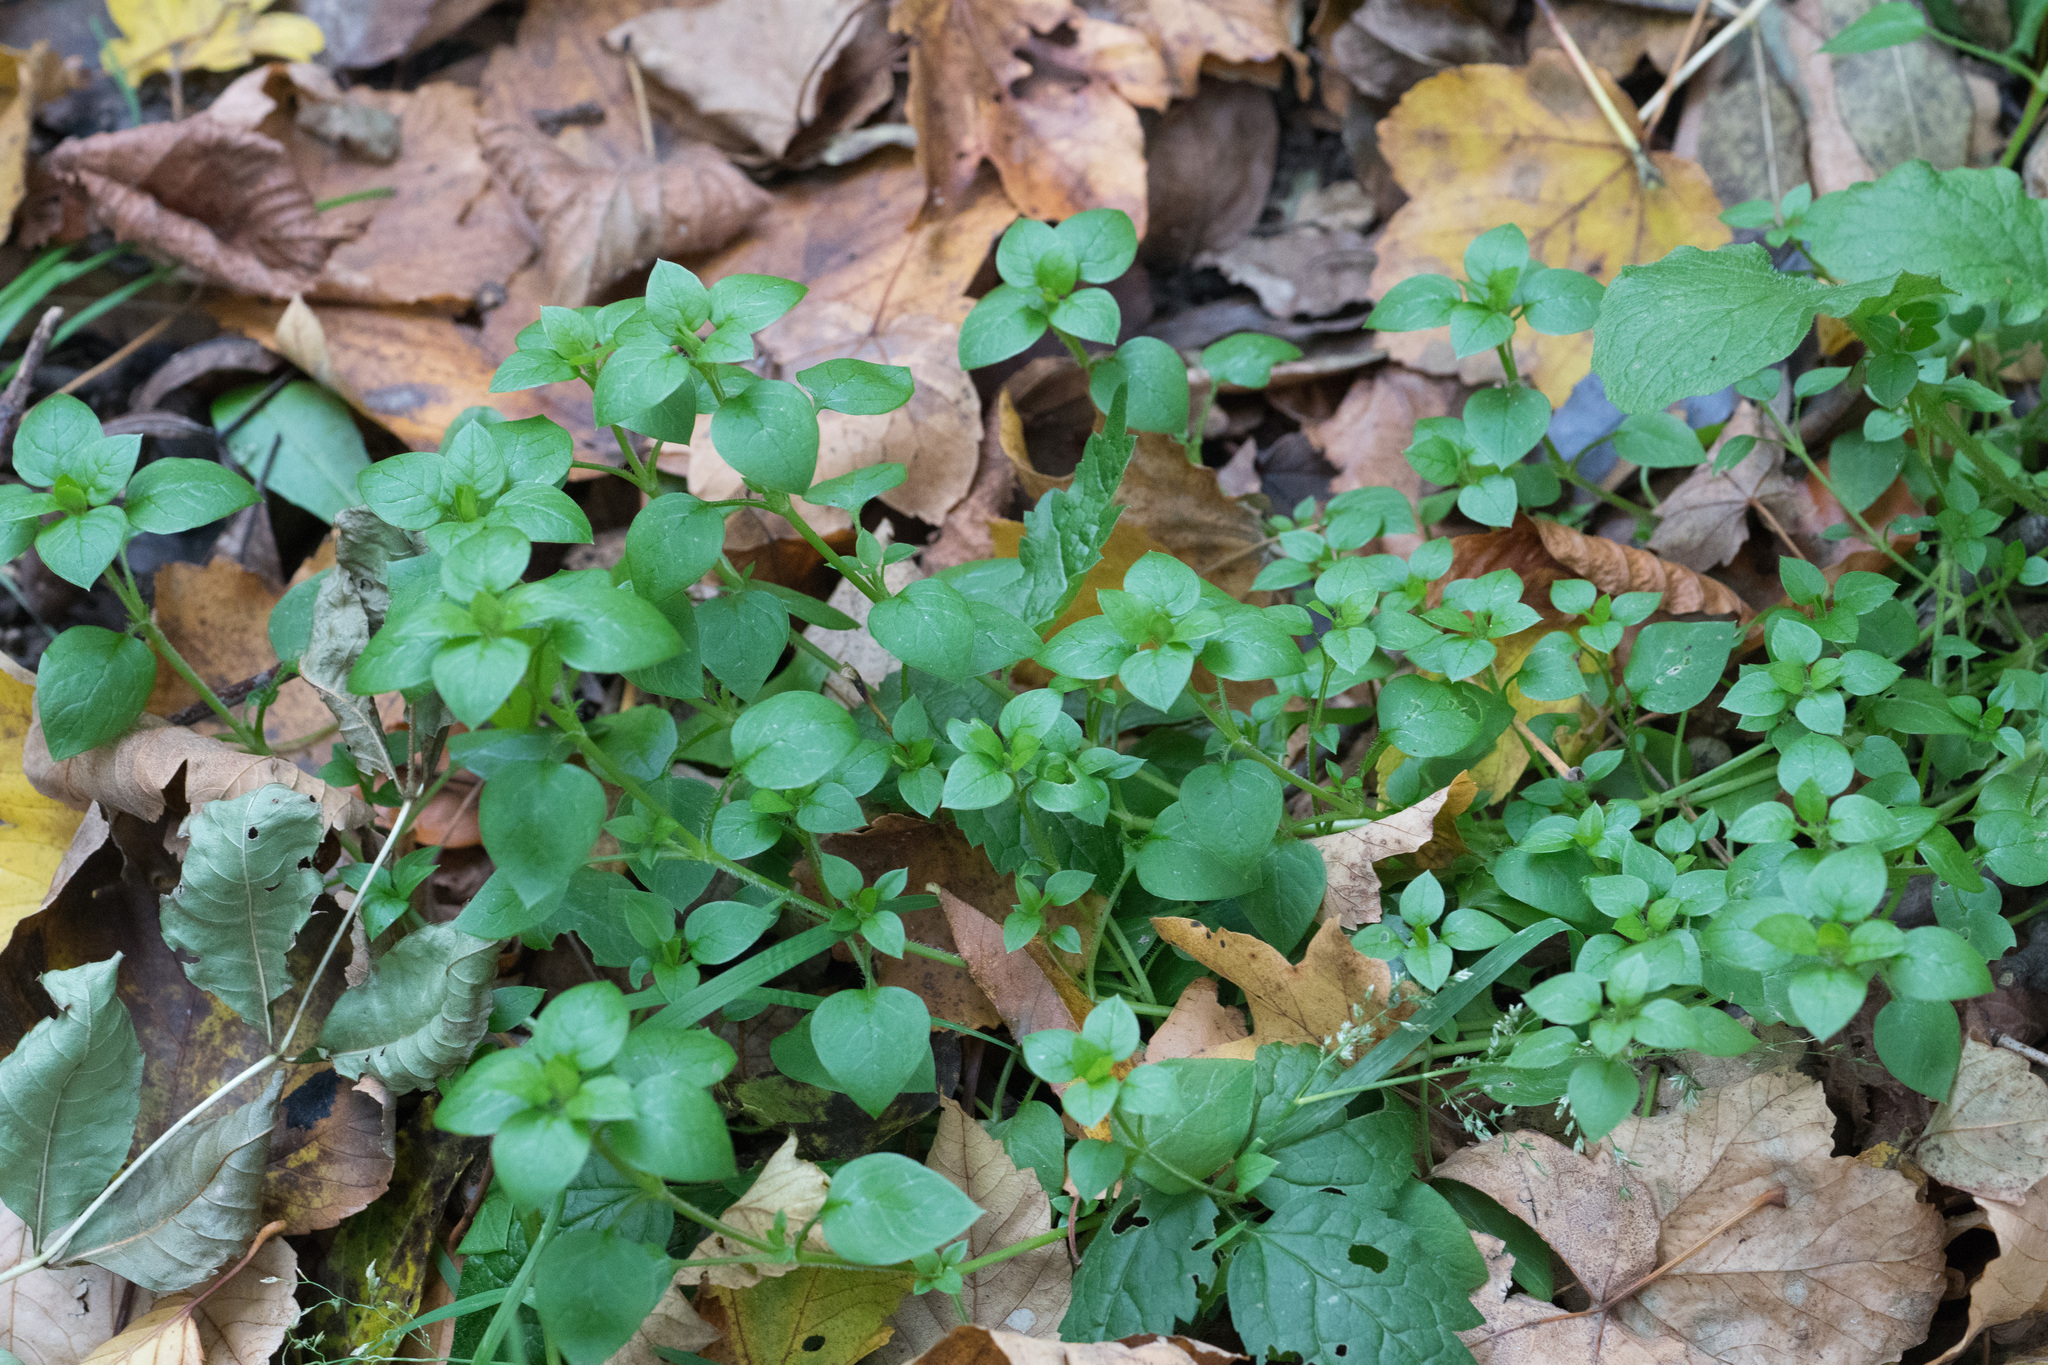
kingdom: Plantae
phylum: Tracheophyta
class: Magnoliopsida
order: Caryophyllales
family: Caryophyllaceae
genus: Stellaria
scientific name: Stellaria media
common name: Common chickweed
